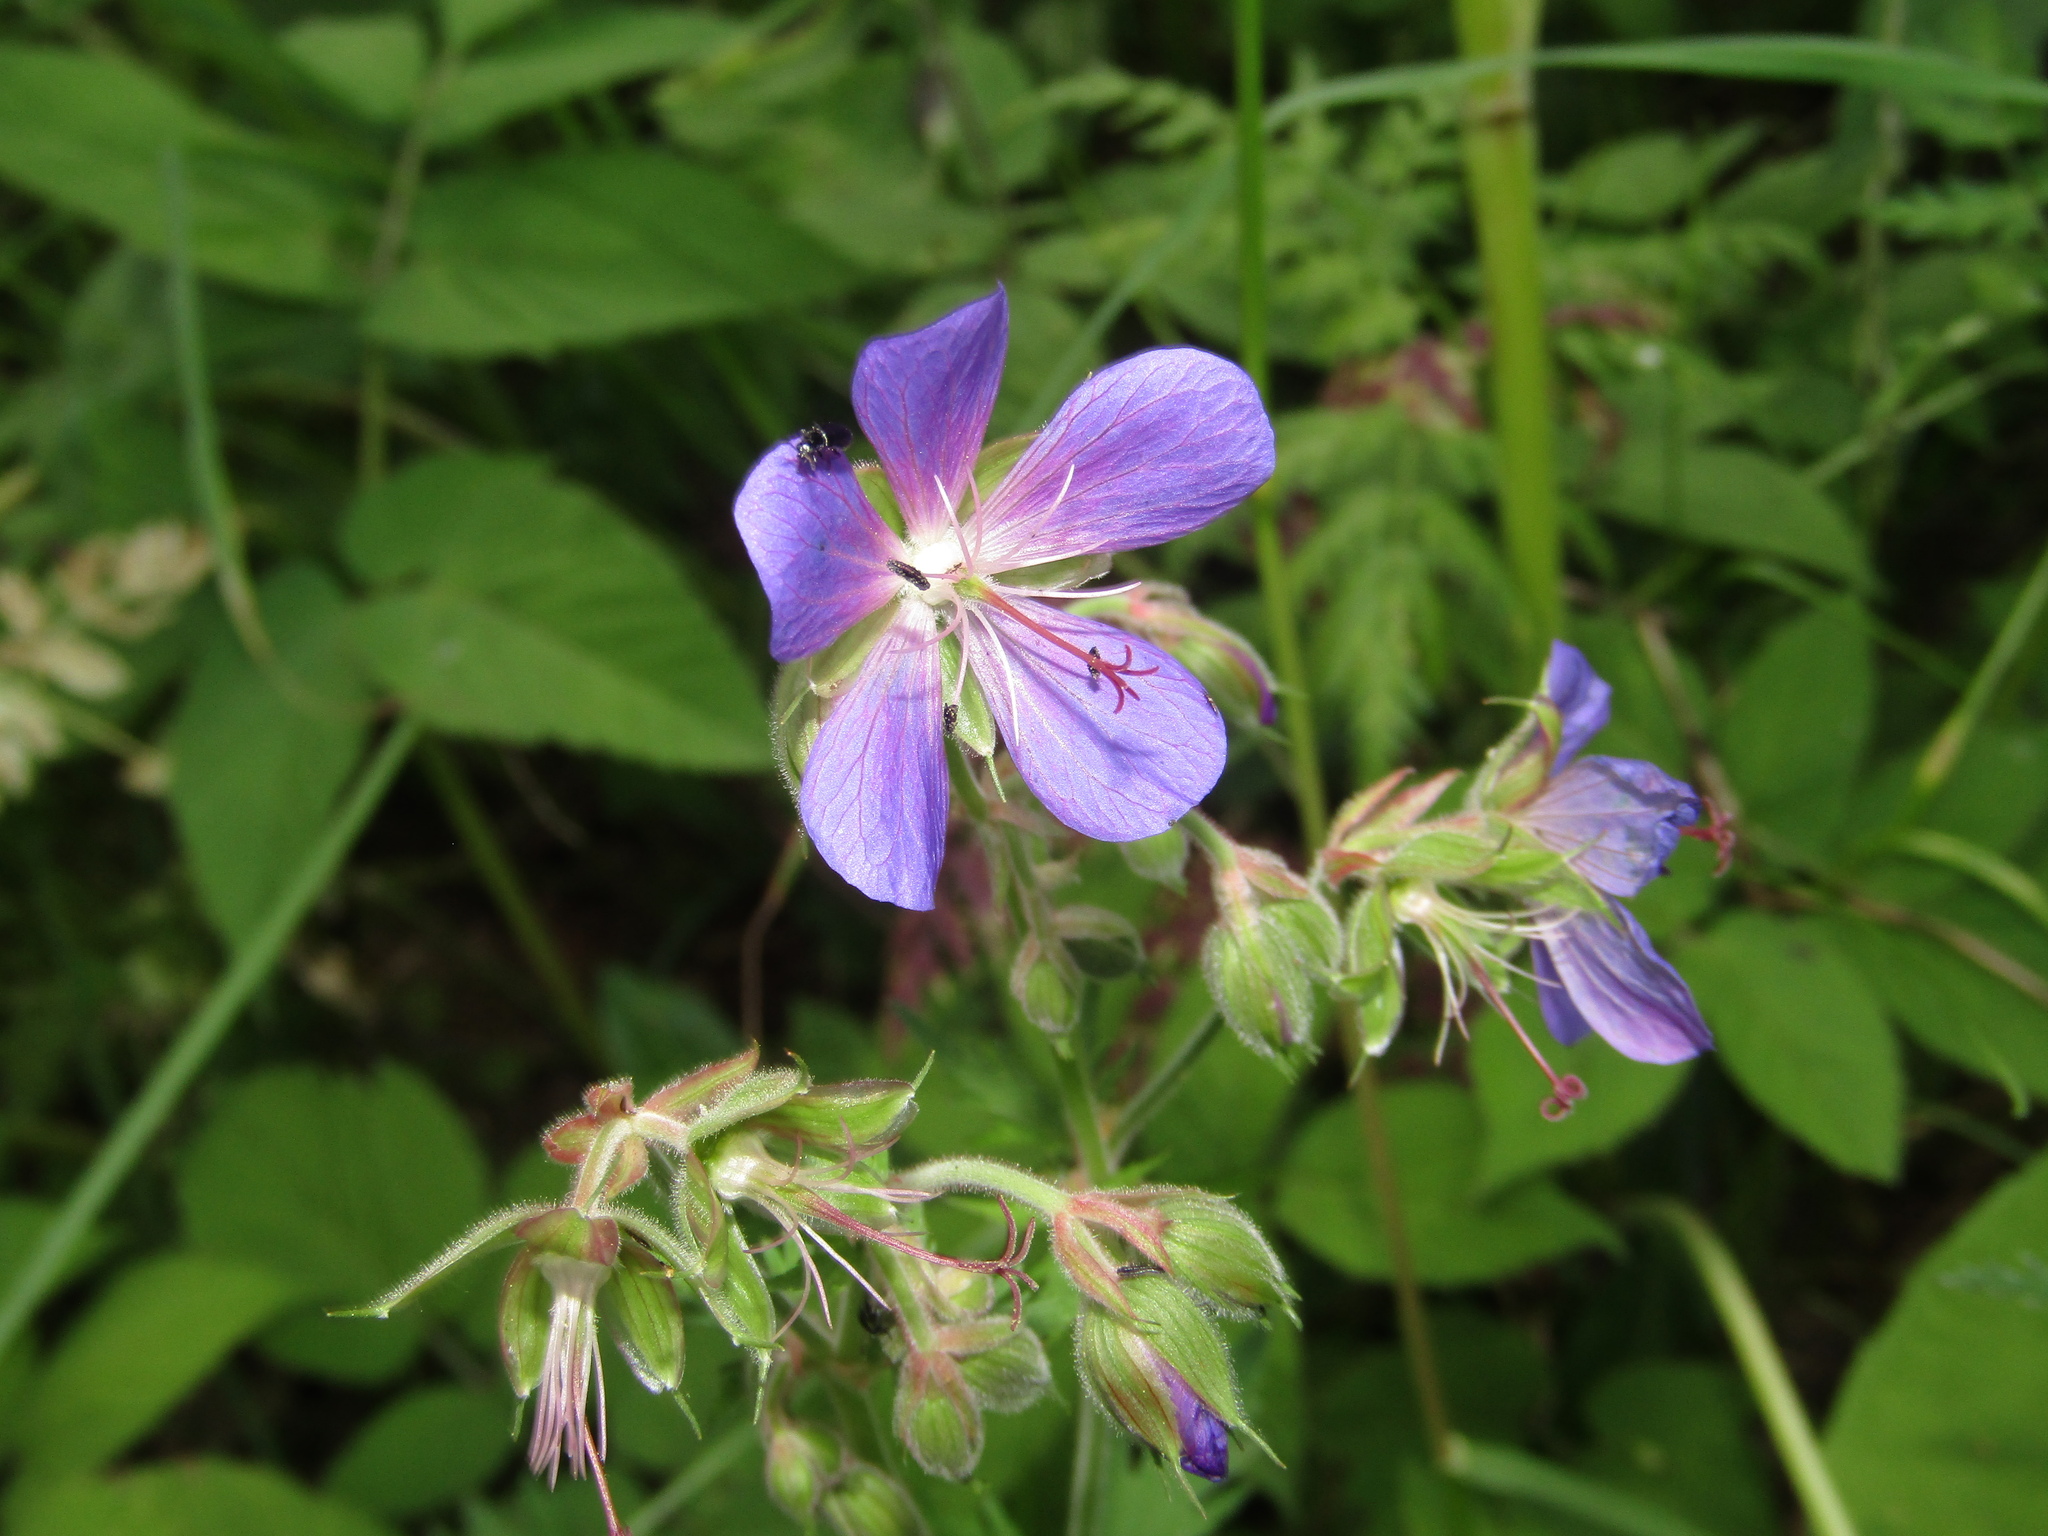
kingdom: Plantae
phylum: Tracheophyta
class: Magnoliopsida
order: Geraniales
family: Geraniaceae
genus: Geranium
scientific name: Geranium pratense
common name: Meadow crane's-bill
